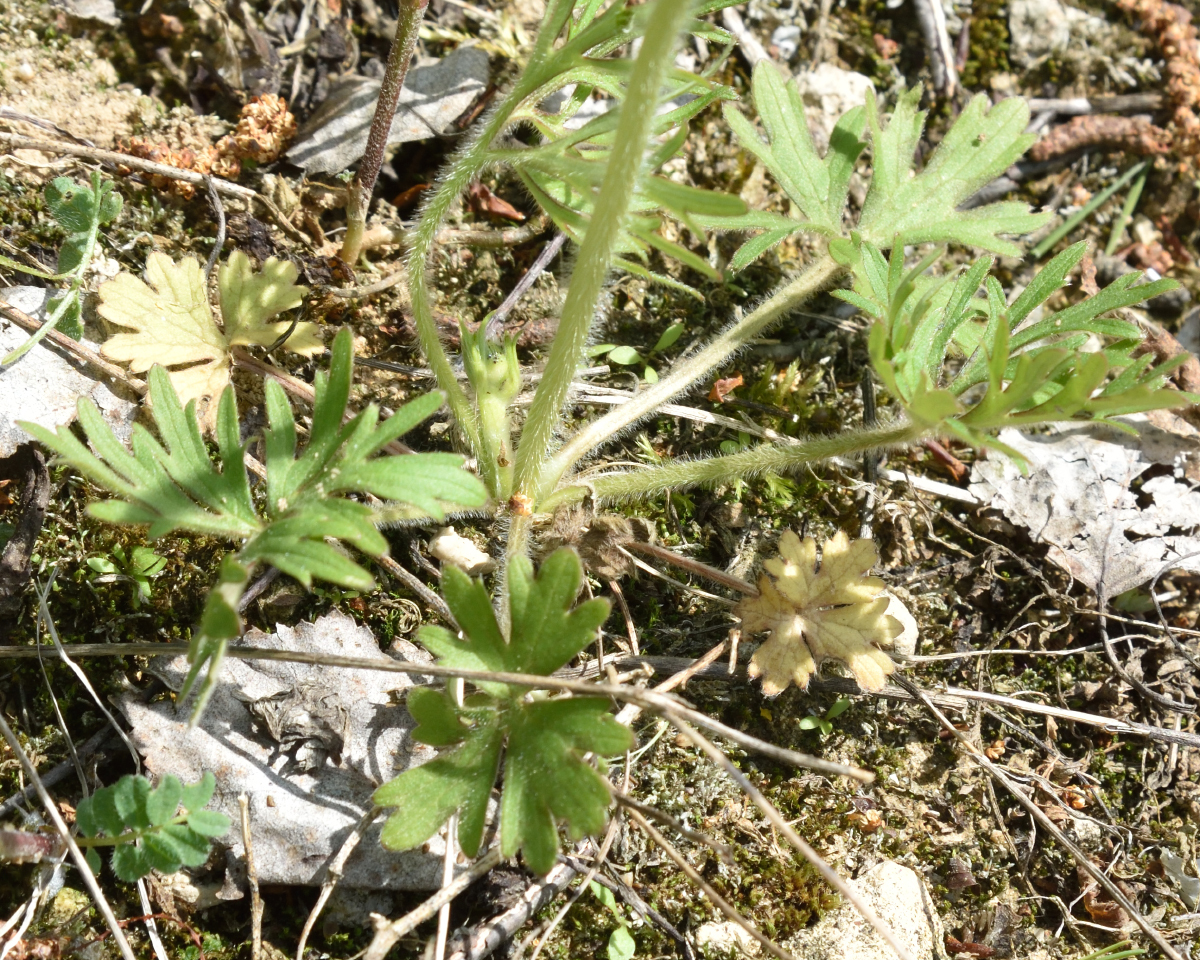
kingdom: Plantae
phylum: Tracheophyta
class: Magnoliopsida
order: Ranunculales
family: Ranunculaceae
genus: Ranunculus
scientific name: Ranunculus polyanthemos
